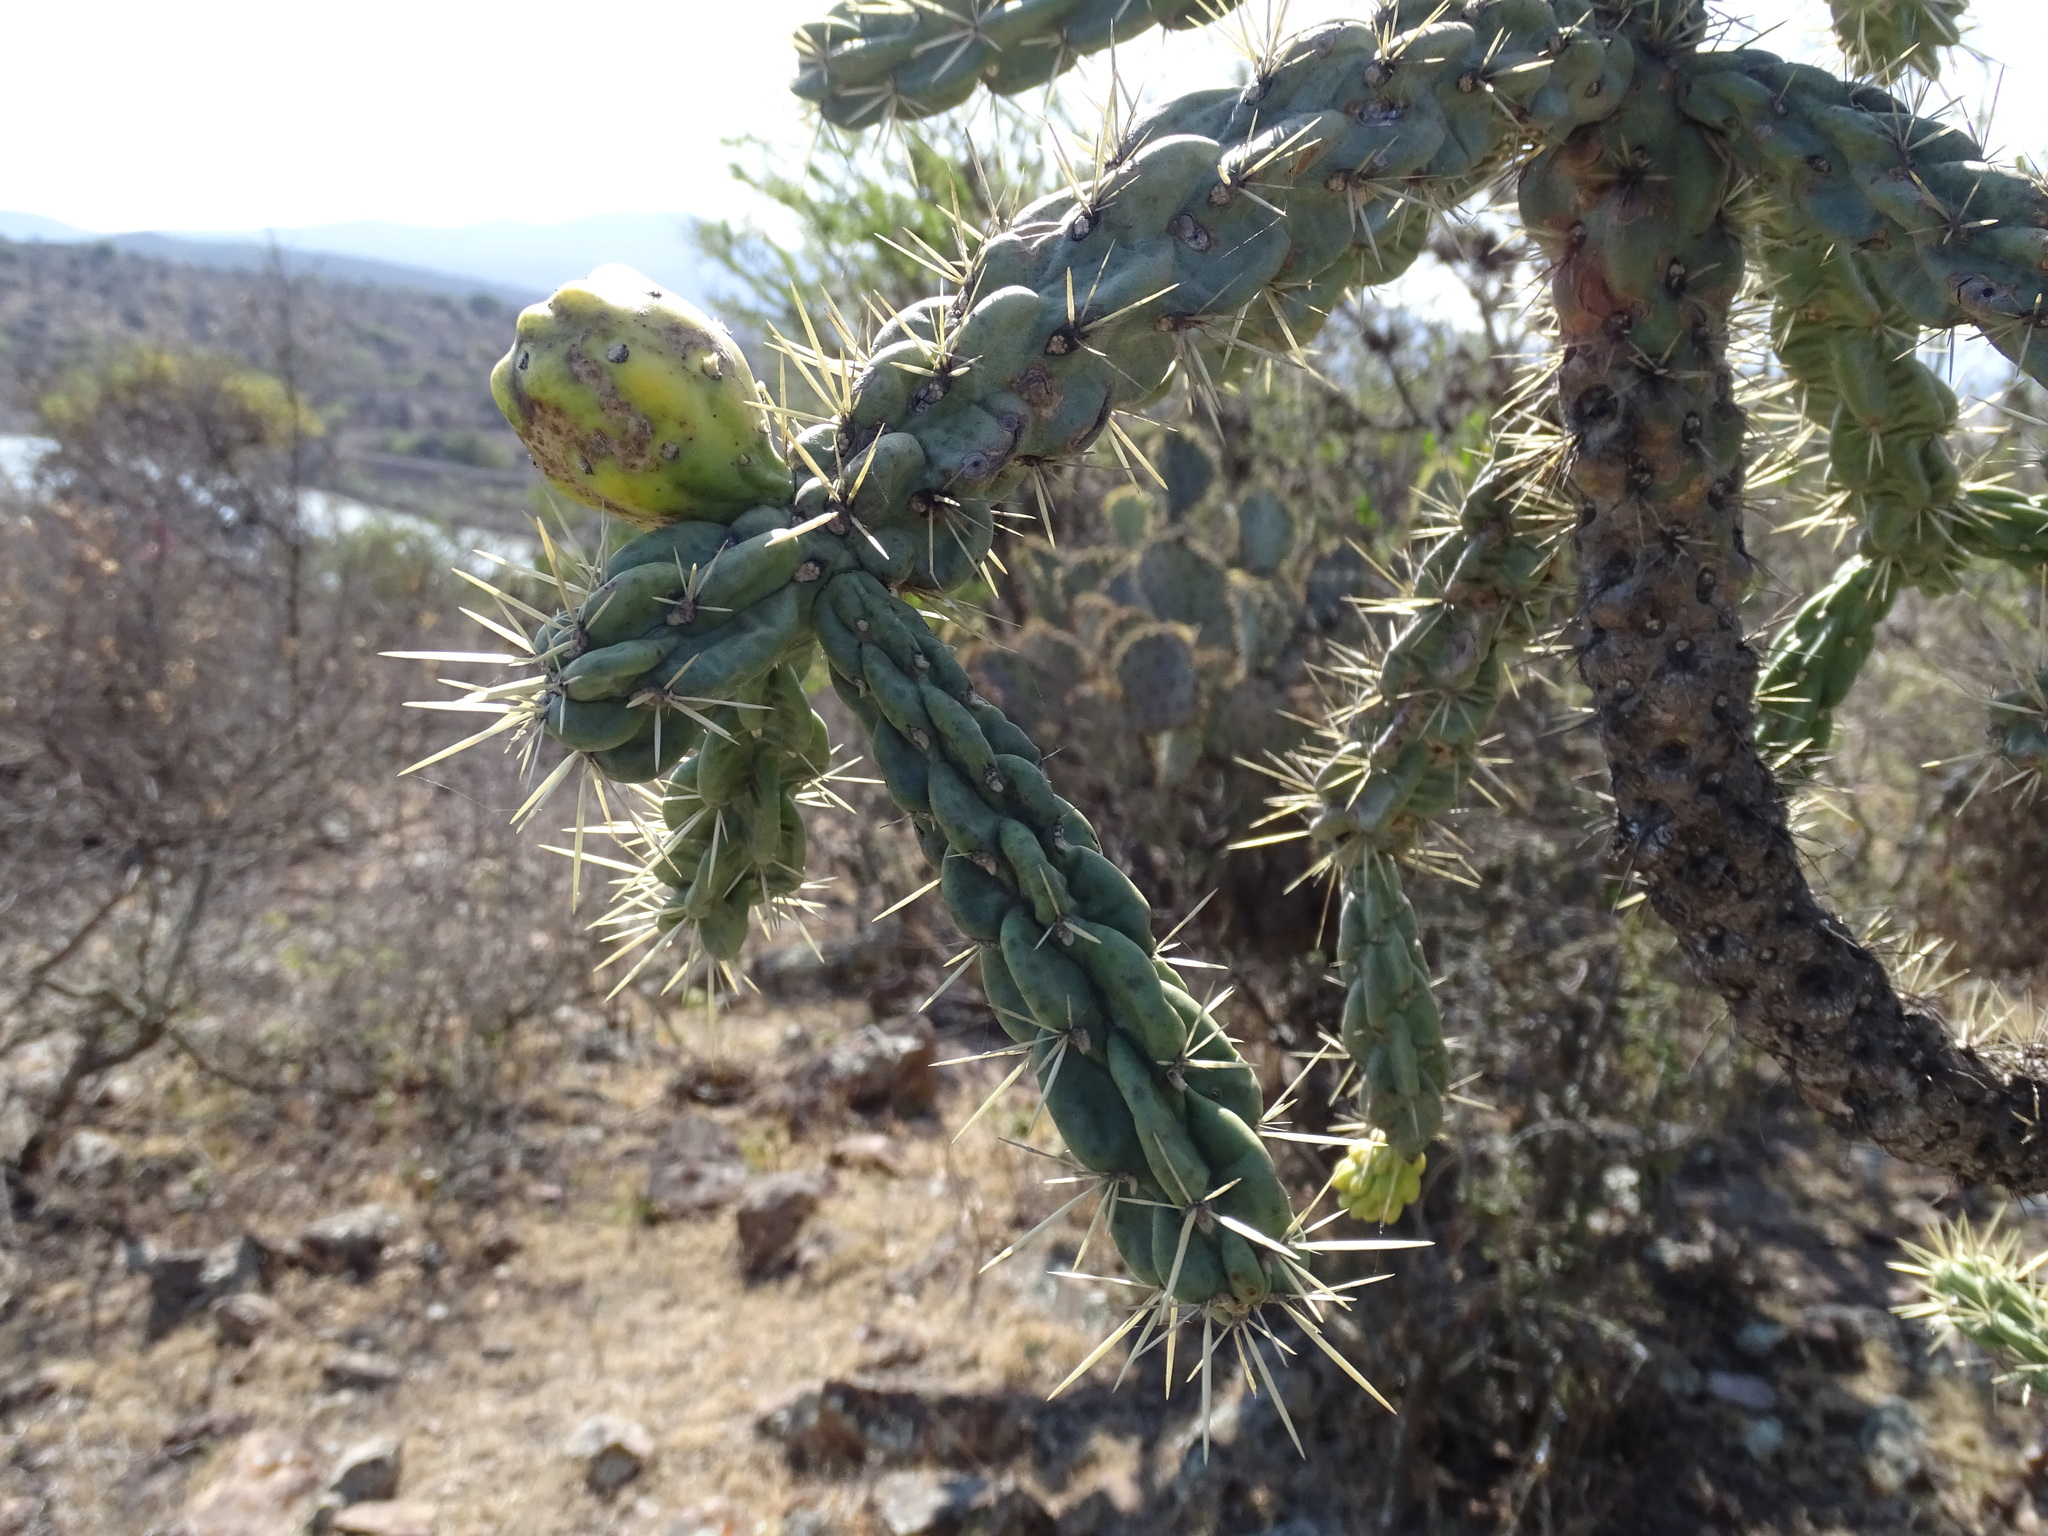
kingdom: Plantae
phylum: Tracheophyta
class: Magnoliopsida
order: Caryophyllales
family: Cactaceae
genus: Cylindropuntia
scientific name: Cylindropuntia imbricata
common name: Candelabrum cactus
